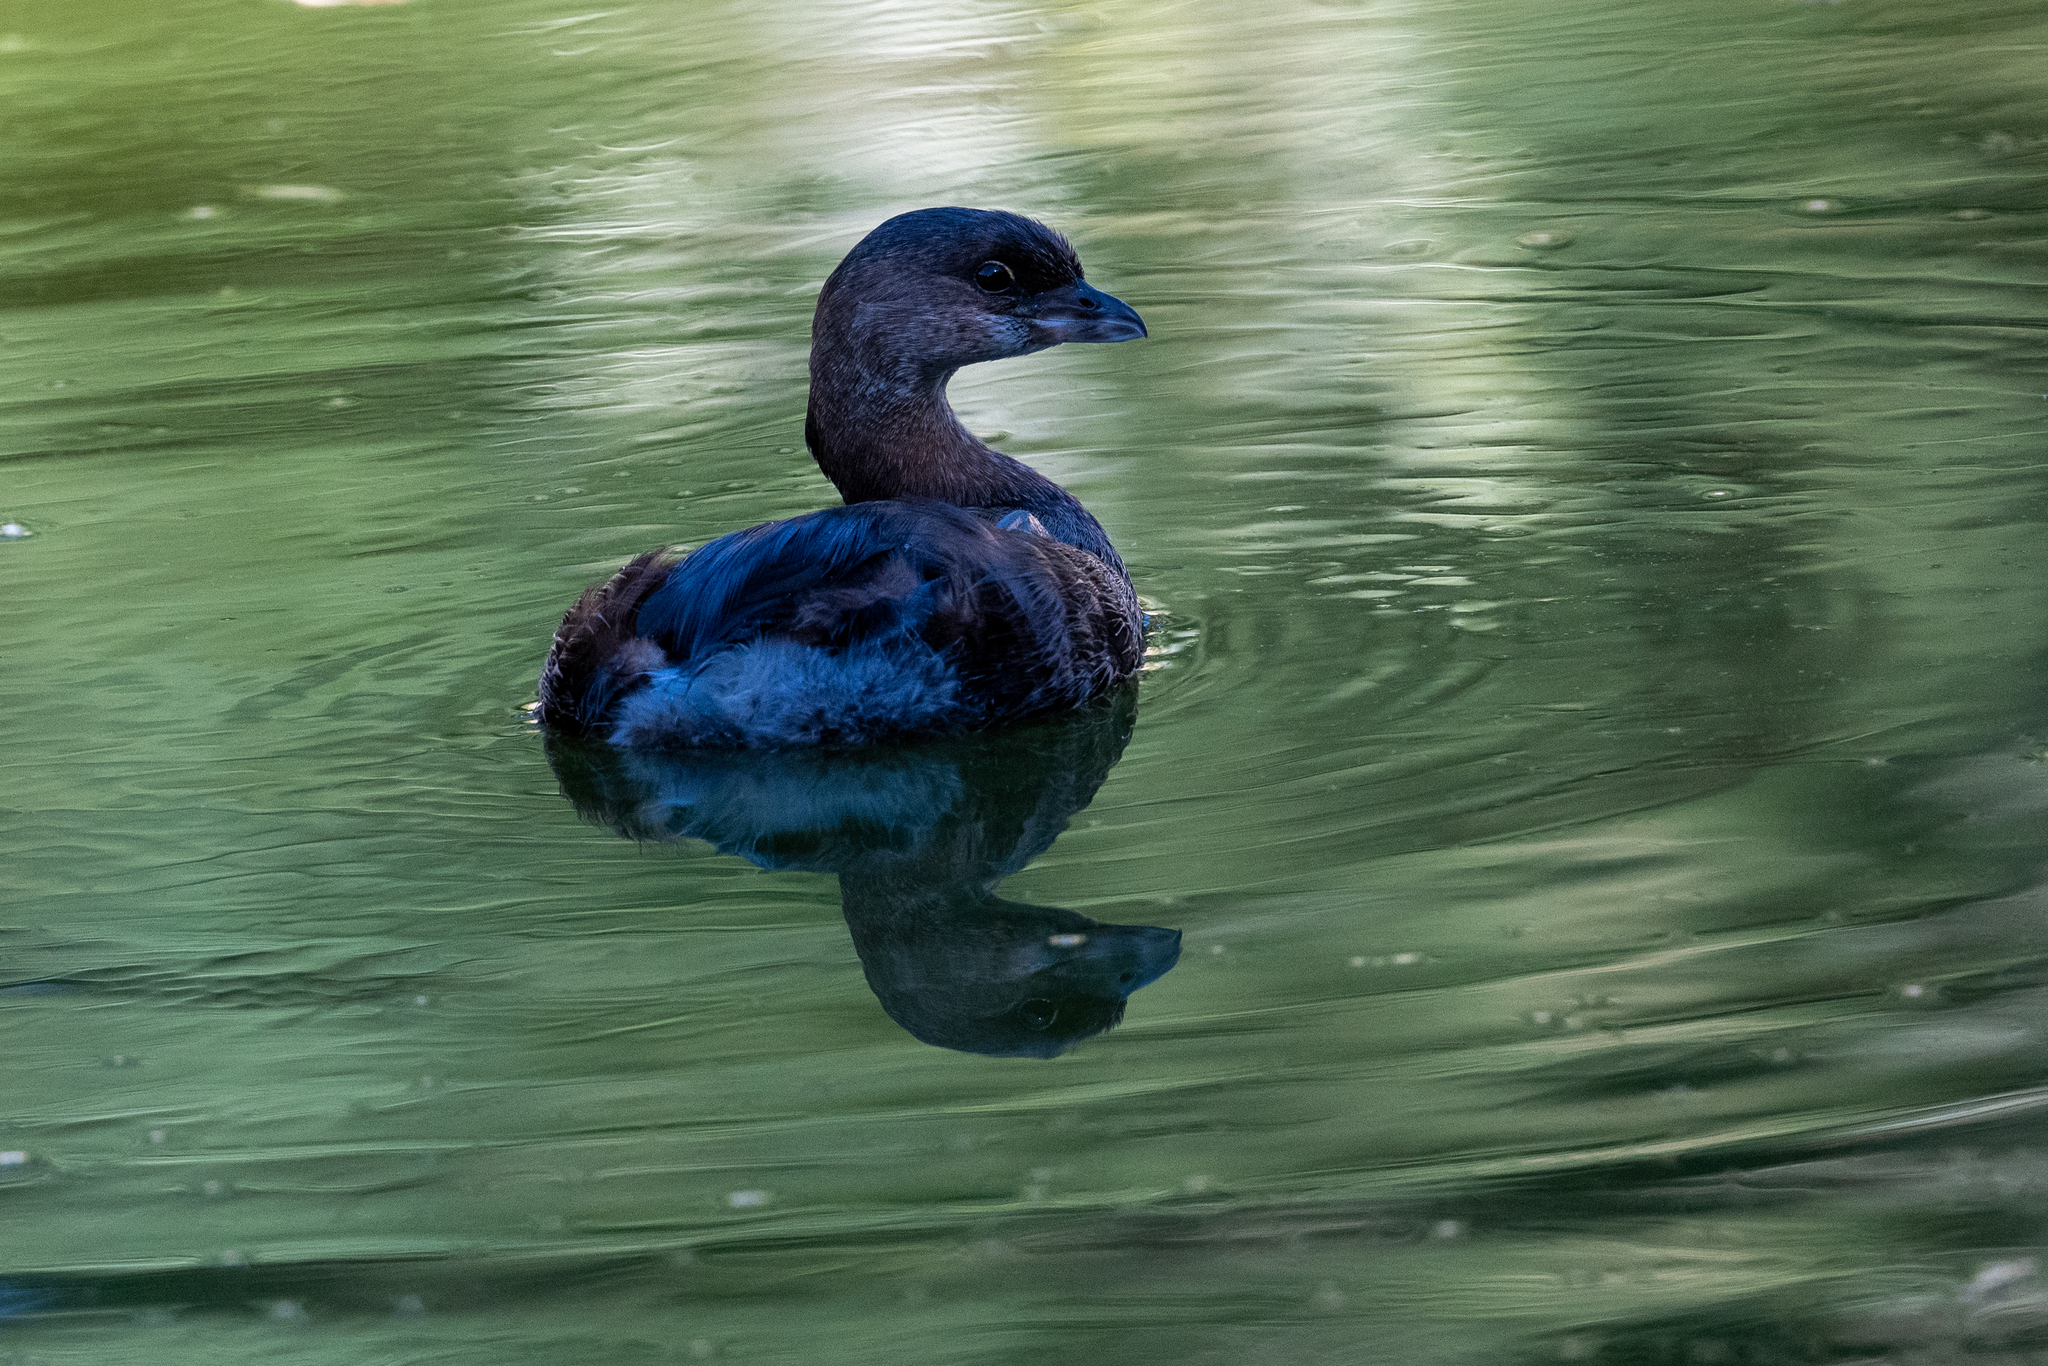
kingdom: Animalia
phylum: Chordata
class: Aves
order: Podicipediformes
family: Podicipedidae
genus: Podilymbus
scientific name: Podilymbus podiceps
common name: Pied-billed grebe
